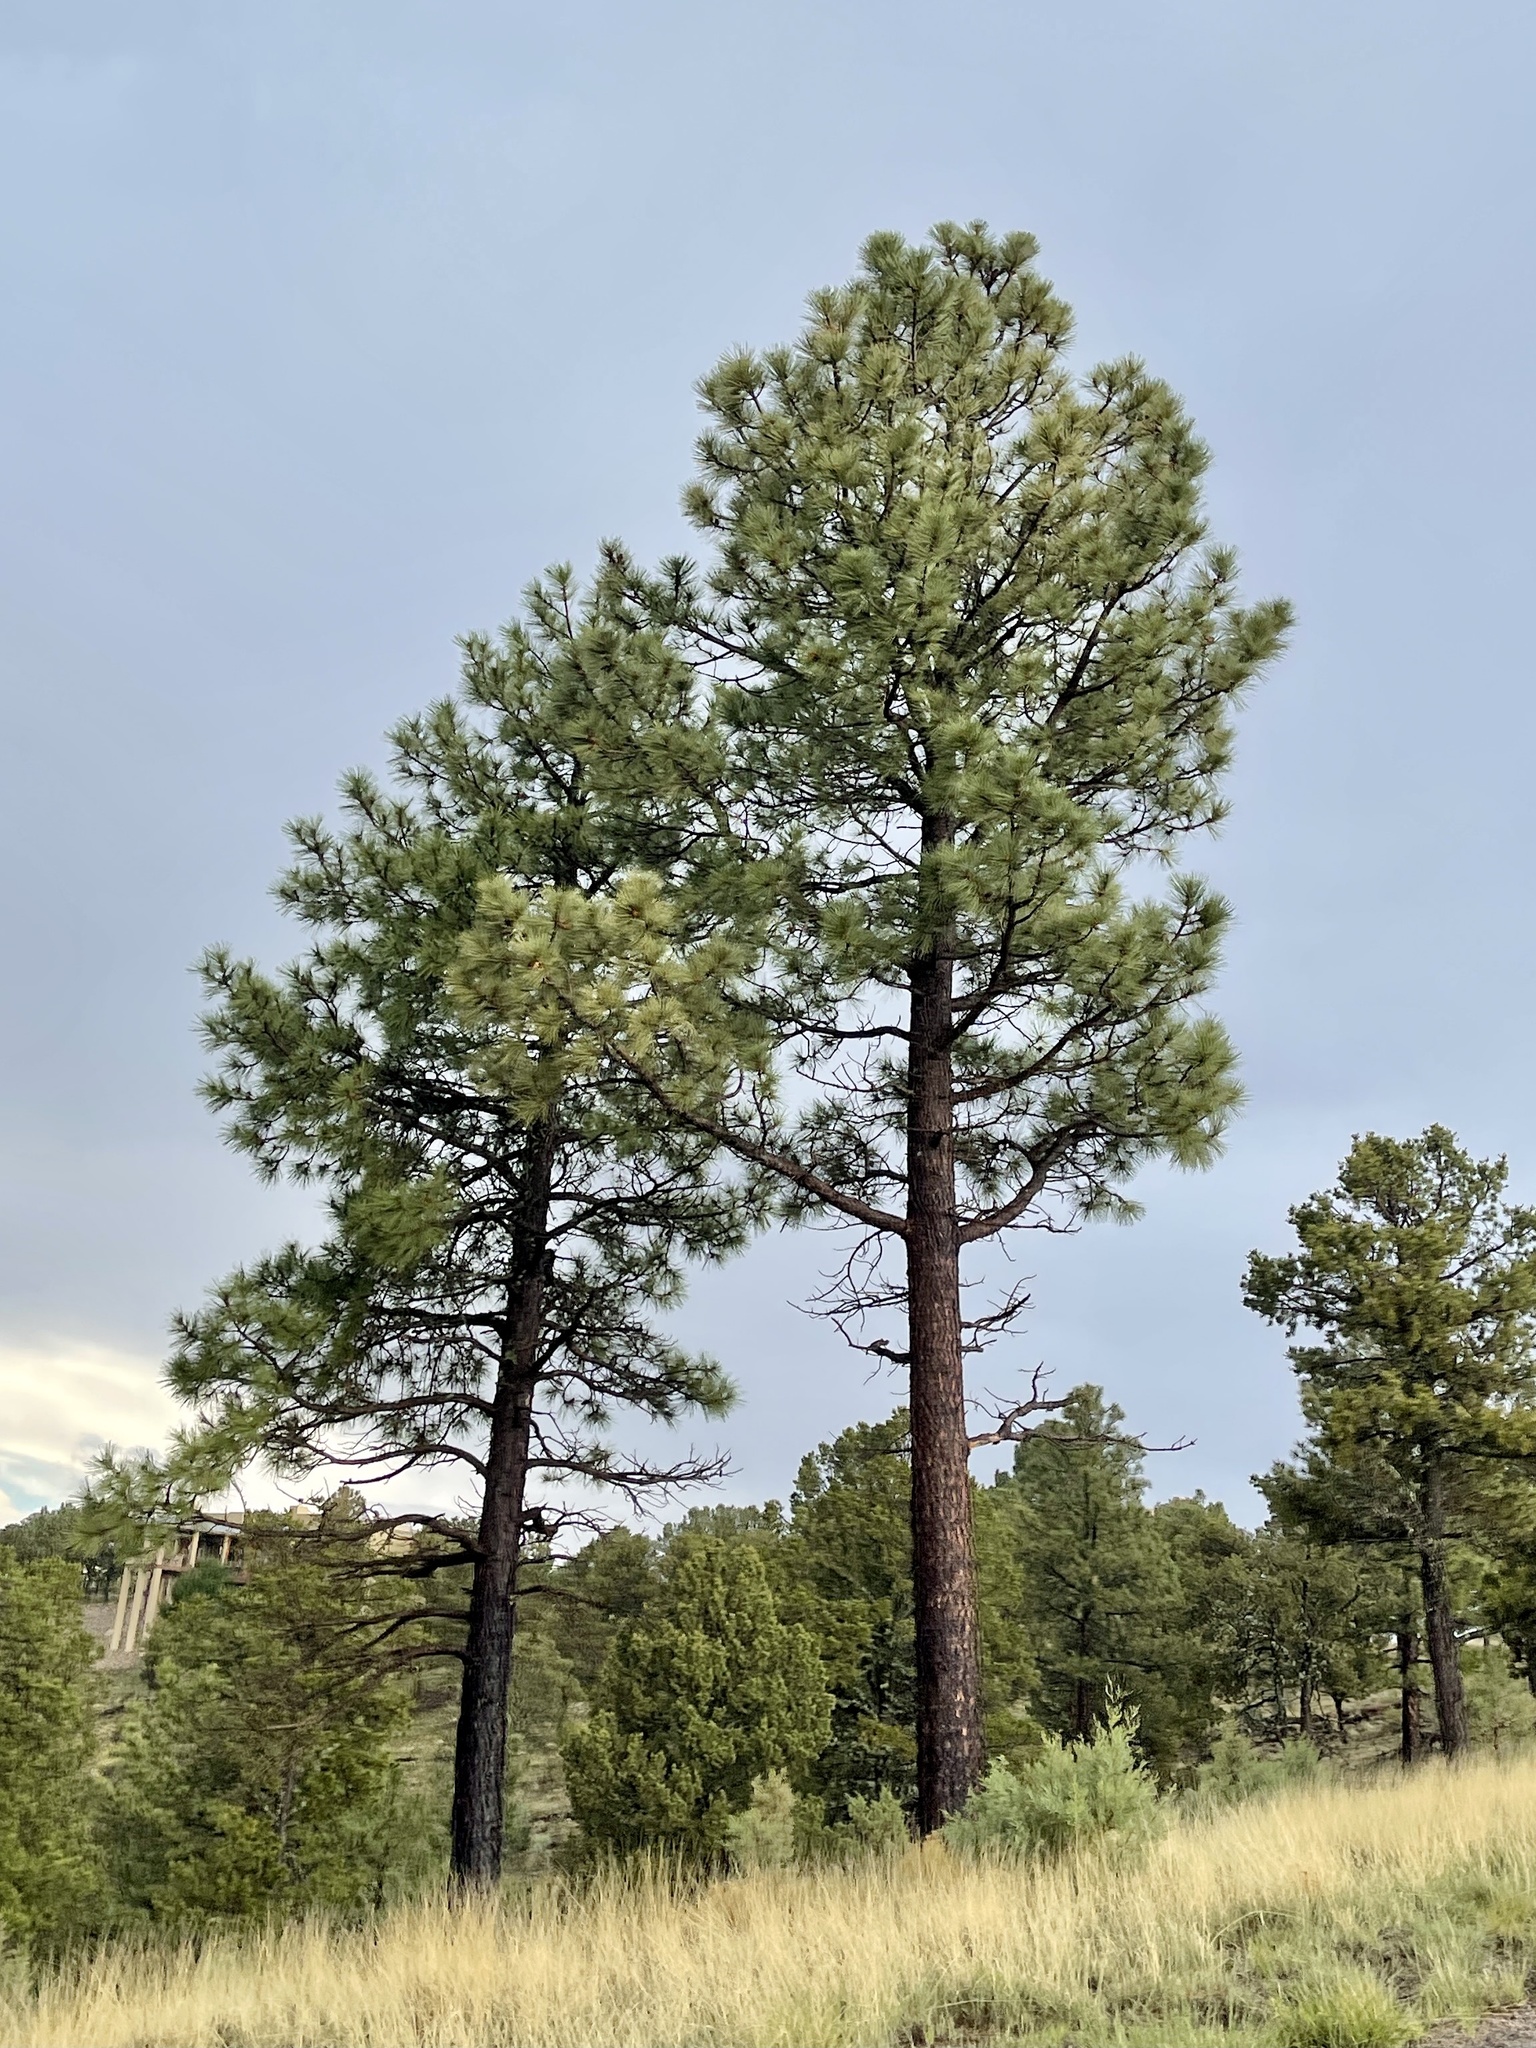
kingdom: Plantae
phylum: Tracheophyta
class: Pinopsida
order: Pinales
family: Pinaceae
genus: Pinus
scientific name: Pinus ponderosa
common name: Western yellow-pine
